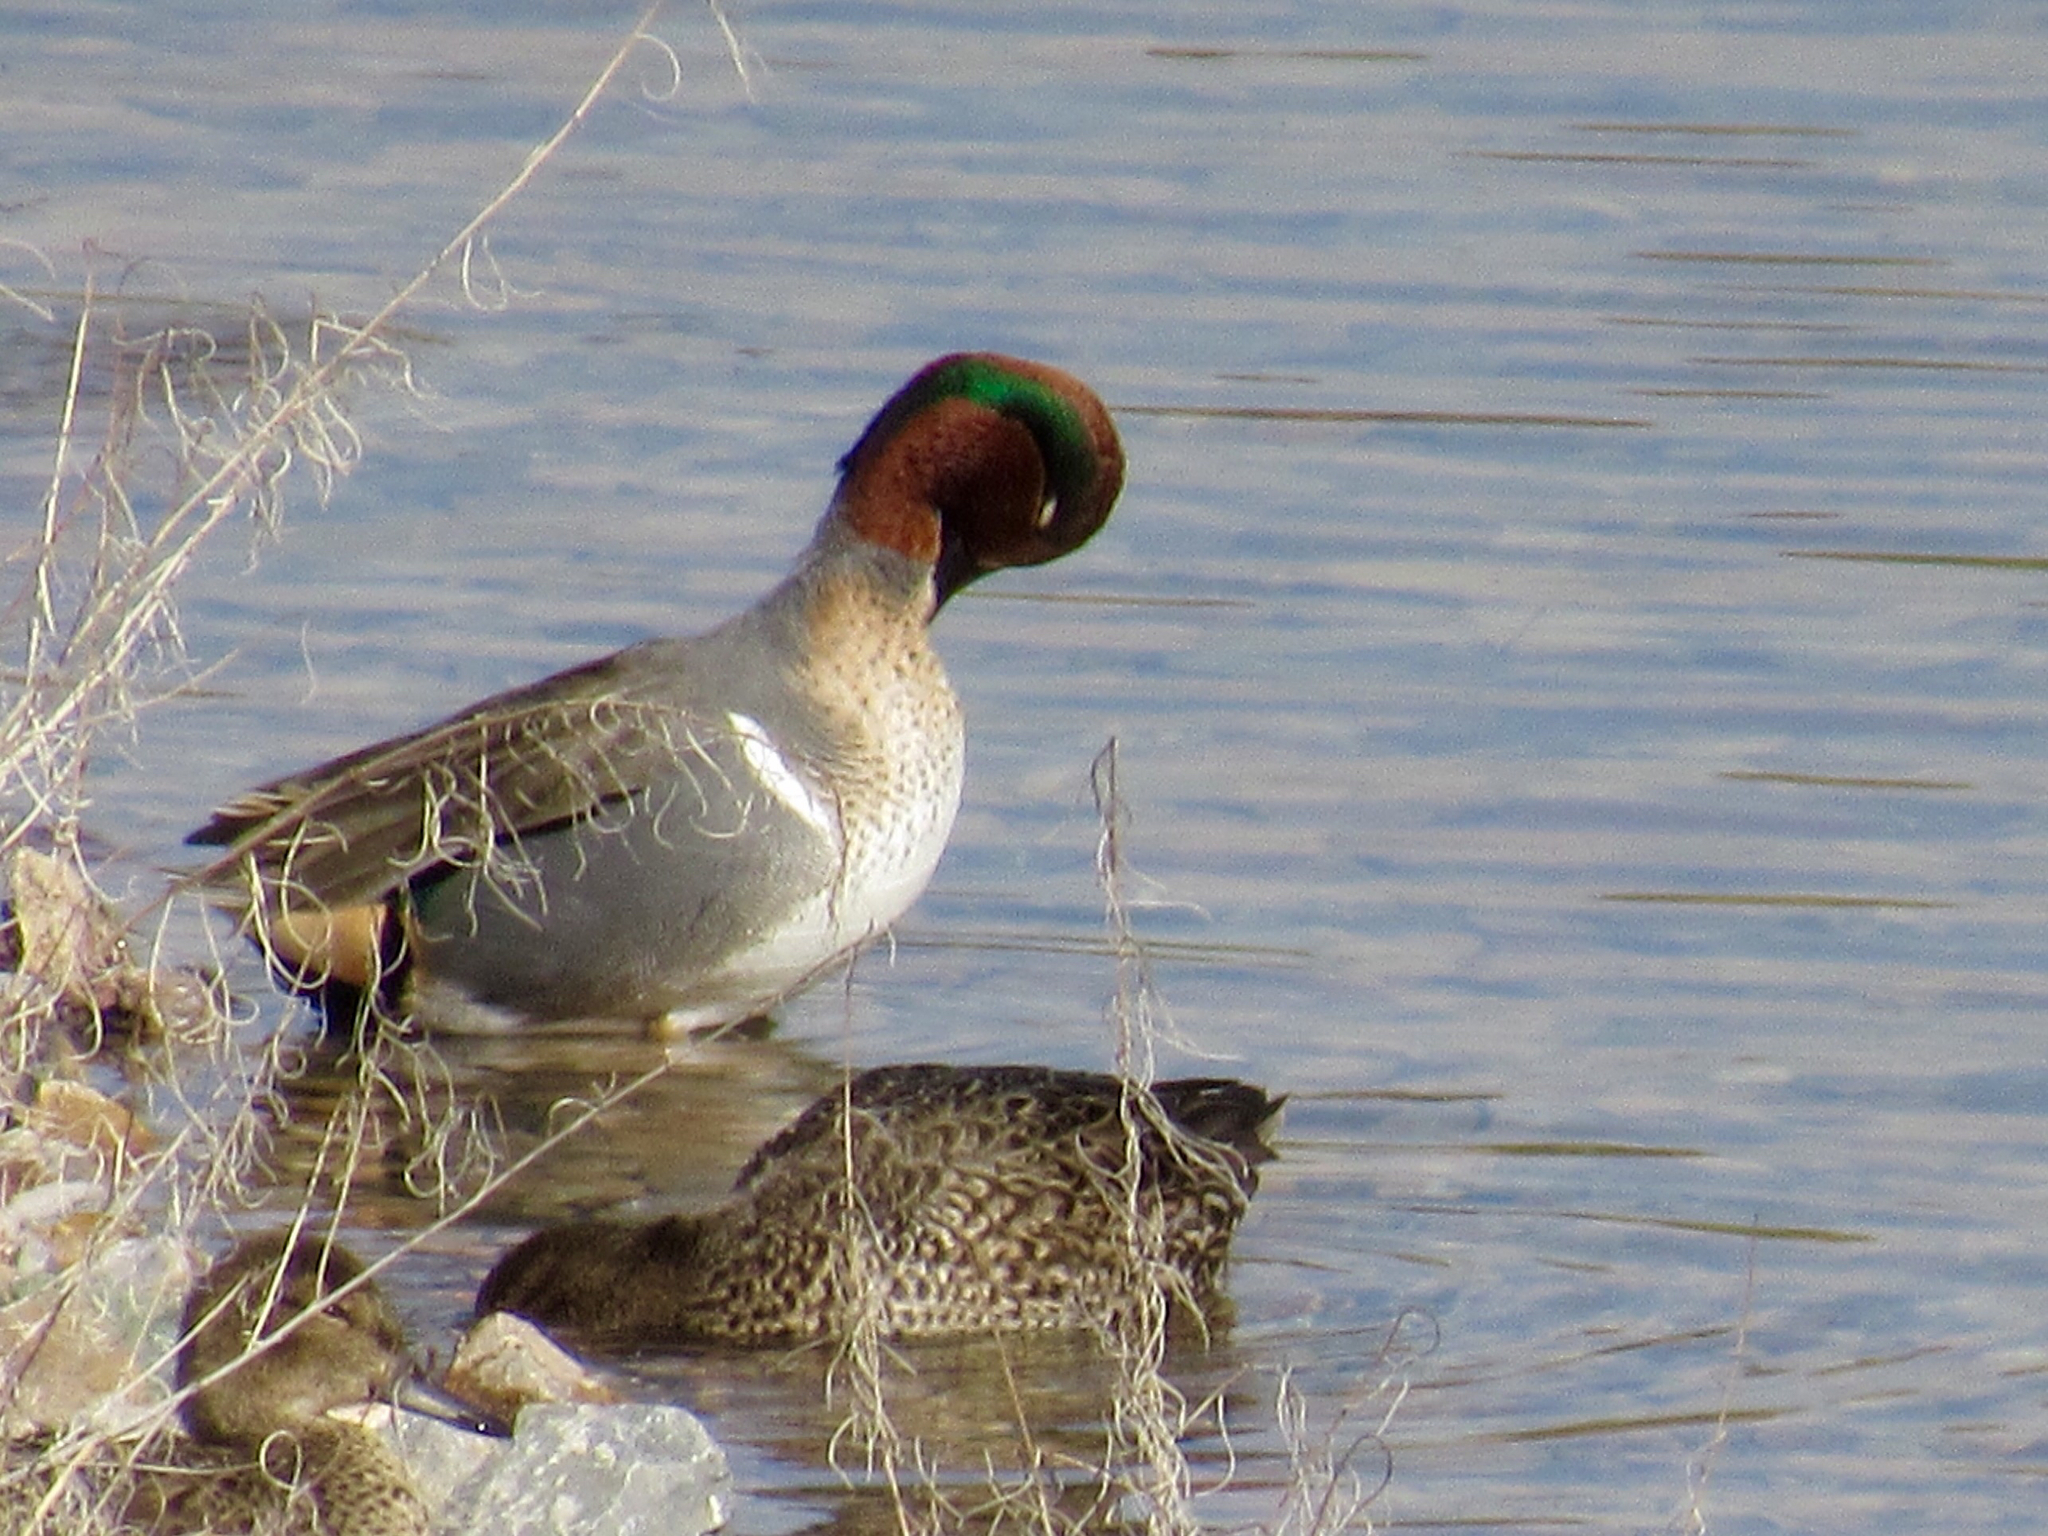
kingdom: Animalia
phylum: Chordata
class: Aves
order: Anseriformes
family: Anatidae
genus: Anas
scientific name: Anas crecca
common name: Eurasian teal
